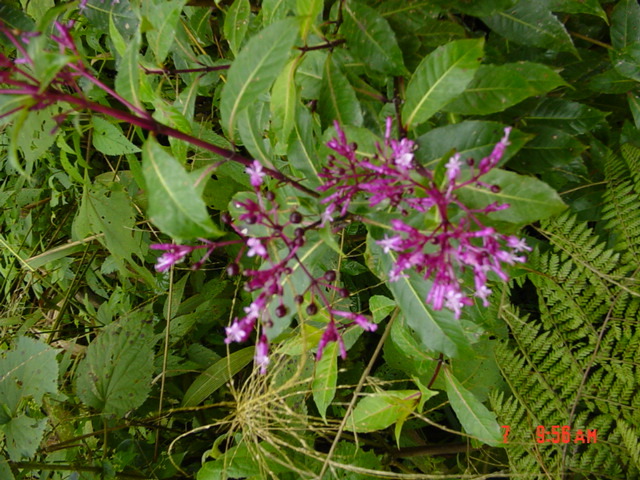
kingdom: Plantae
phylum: Tracheophyta
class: Magnoliopsida
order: Myrtales
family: Onagraceae
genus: Fuchsia
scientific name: Fuchsia paniculata
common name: Shrubby fuchsia
